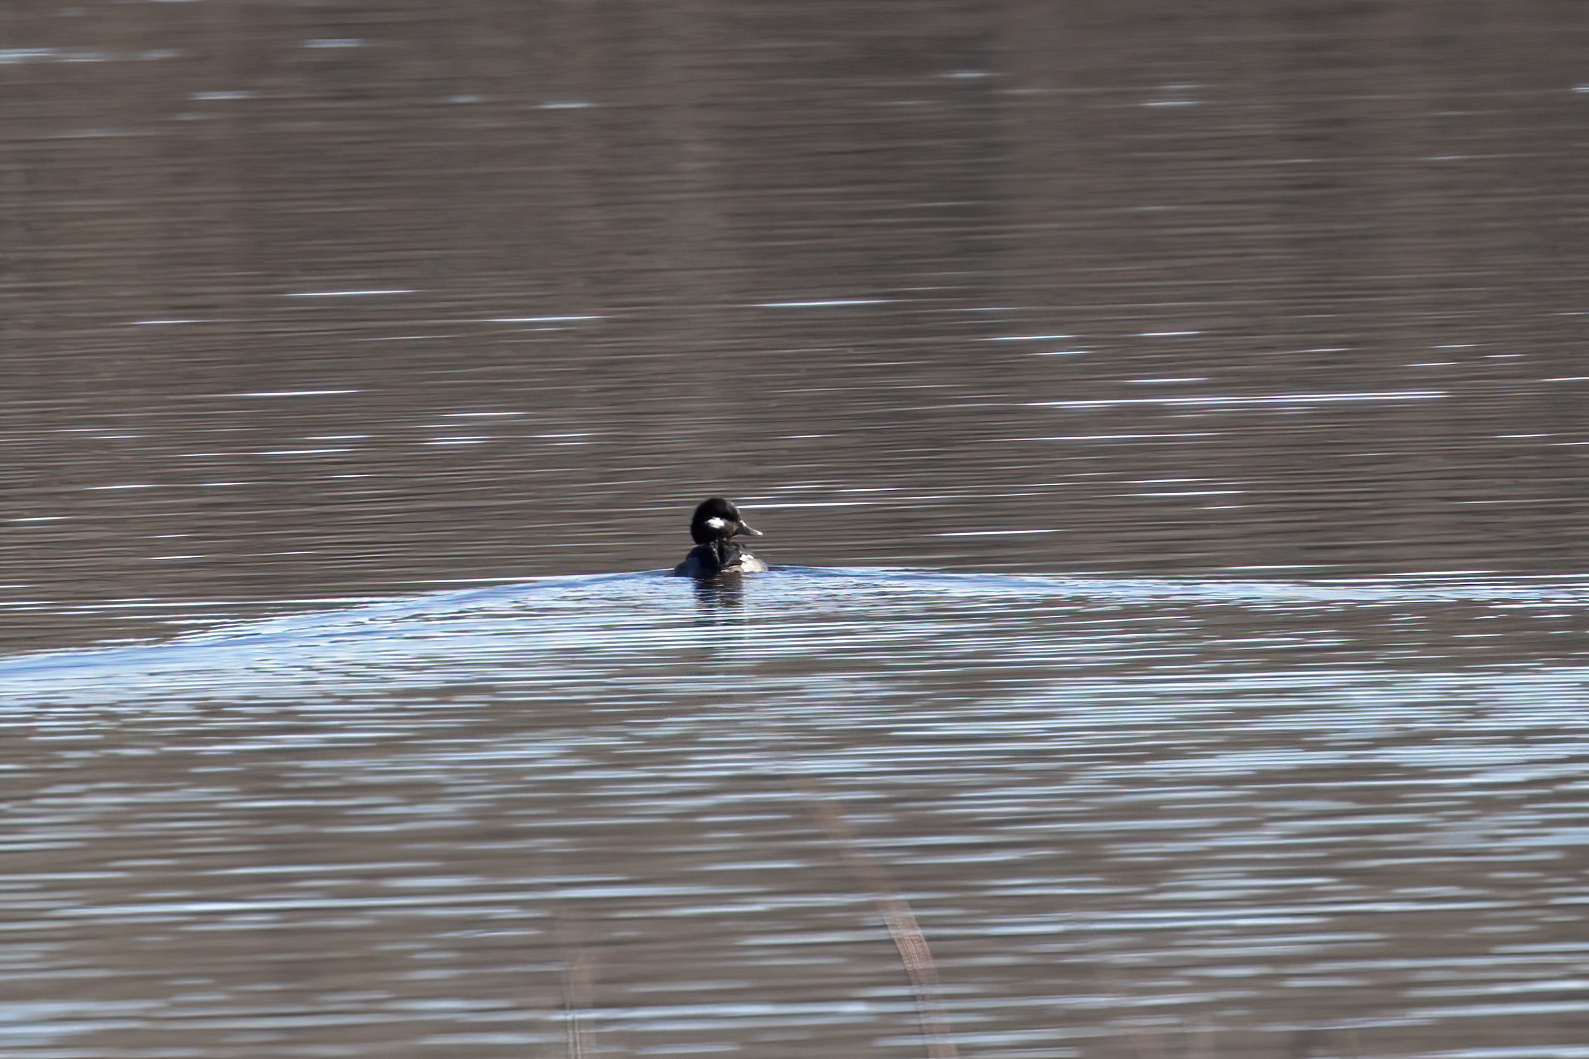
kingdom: Animalia
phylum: Chordata
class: Aves
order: Anseriformes
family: Anatidae
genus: Bucephala
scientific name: Bucephala albeola
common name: Bufflehead
